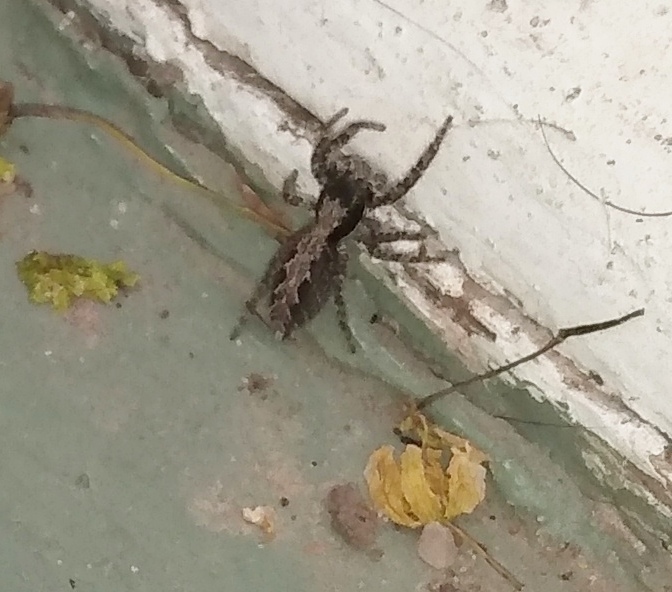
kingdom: Animalia
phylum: Arthropoda
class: Arachnida
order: Araneae
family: Salticidae
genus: Platycryptus
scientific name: Platycryptus californicus
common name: Jumping spiders
